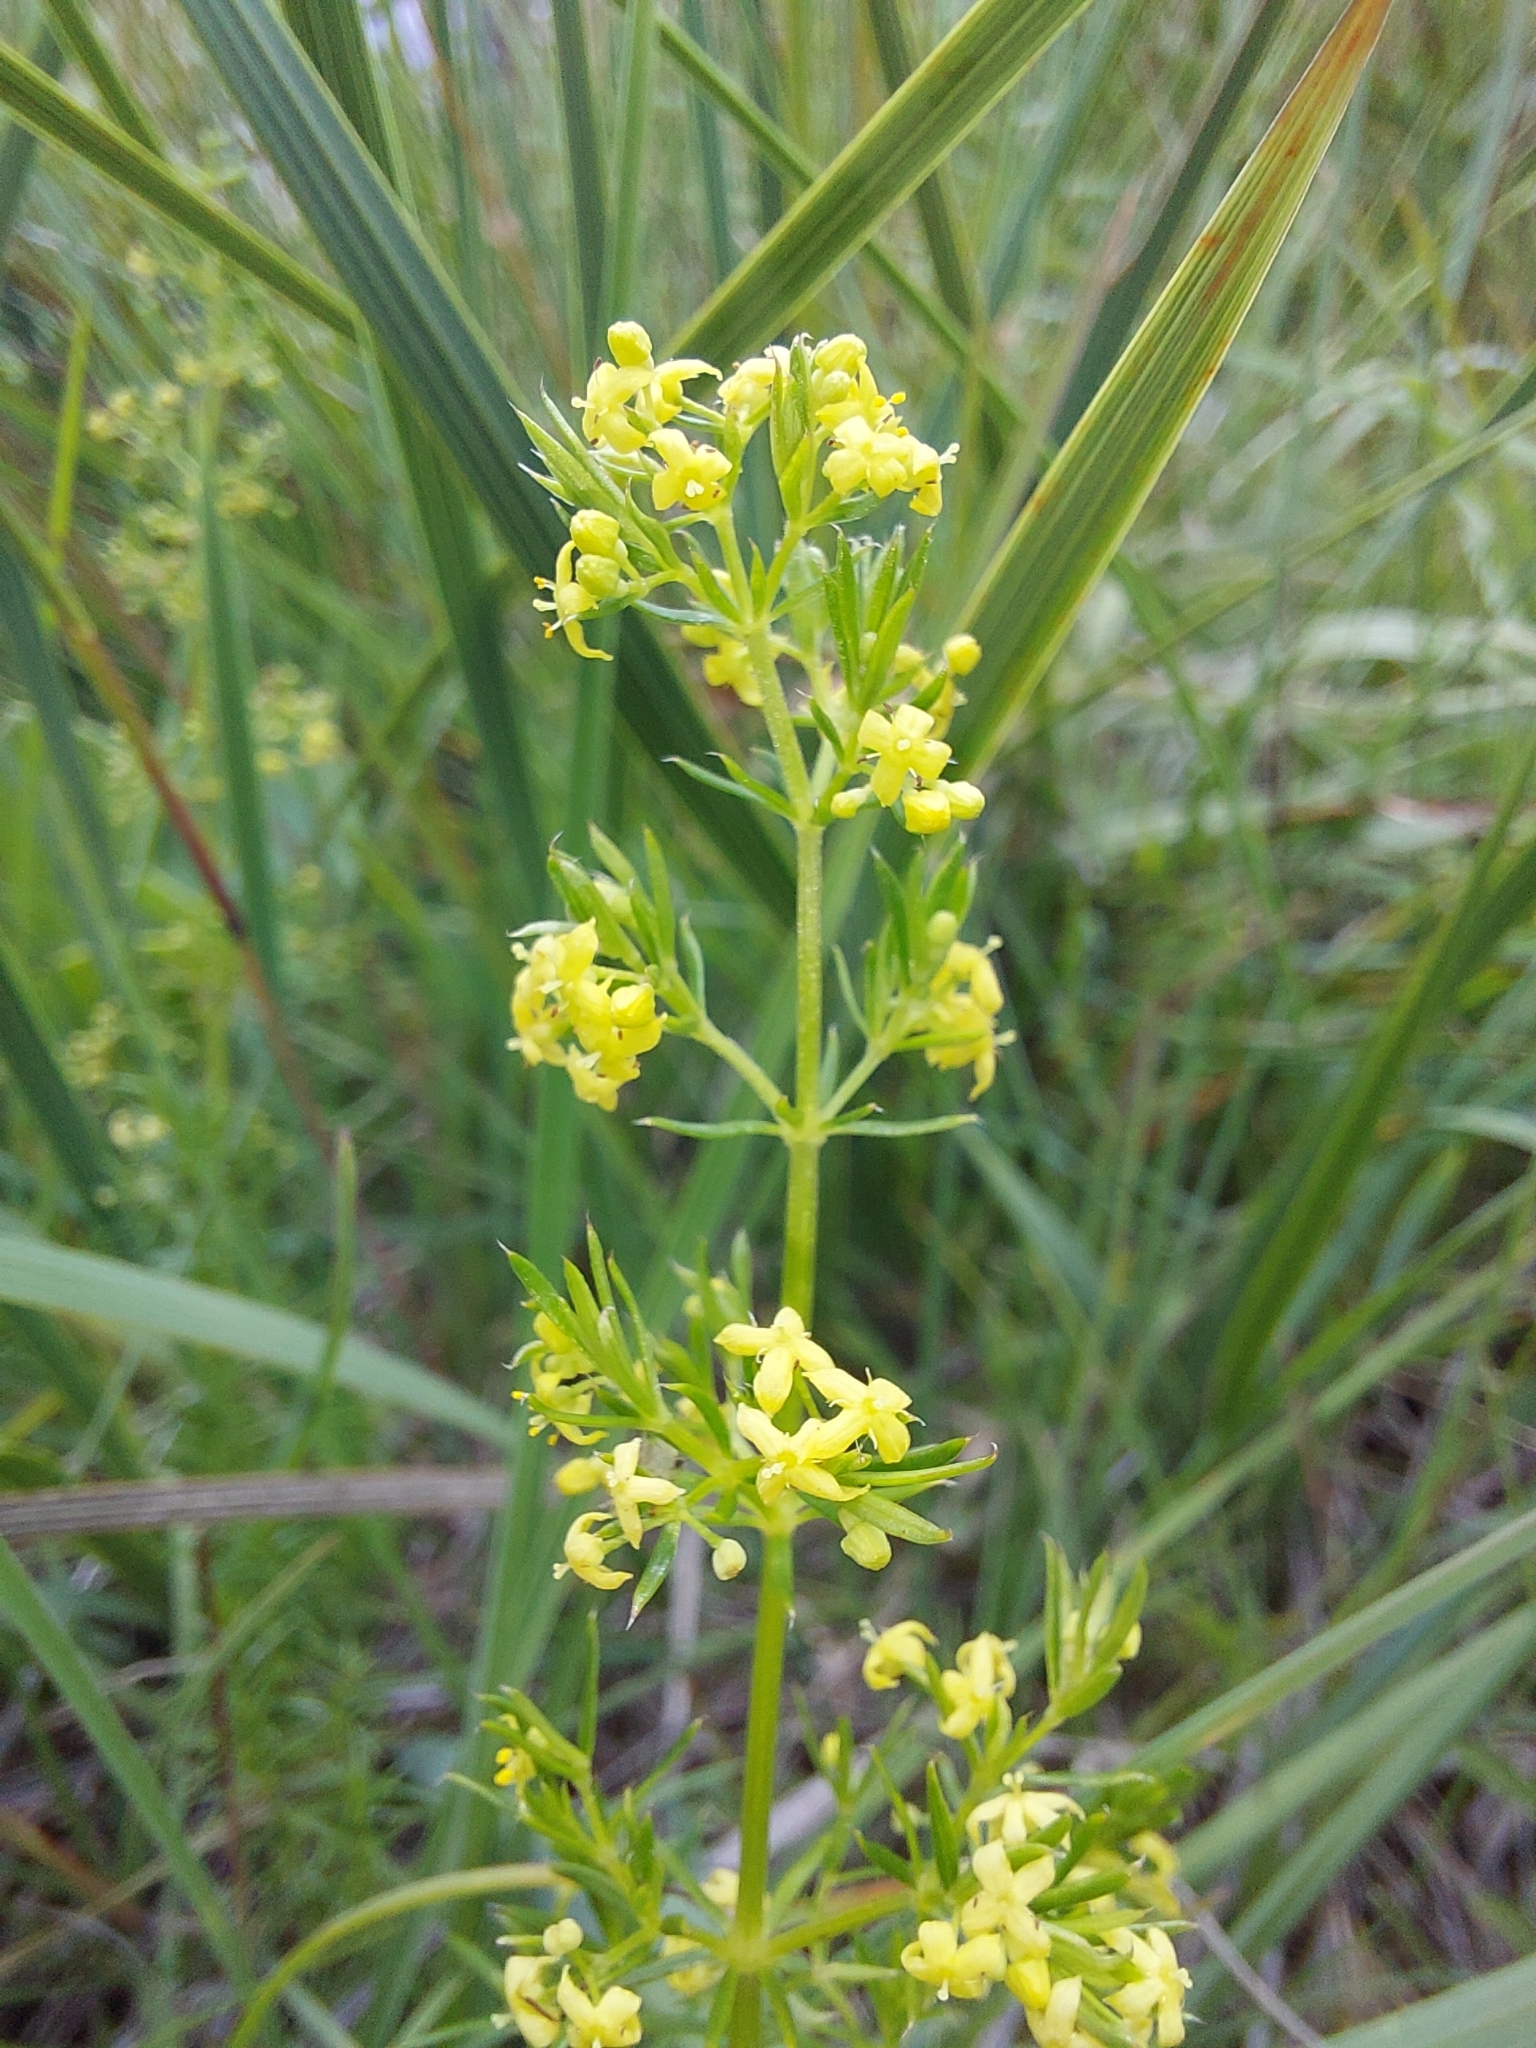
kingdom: Plantae
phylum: Tracheophyta
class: Magnoliopsida
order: Gentianales
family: Rubiaceae
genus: Galium
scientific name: Galium capense
